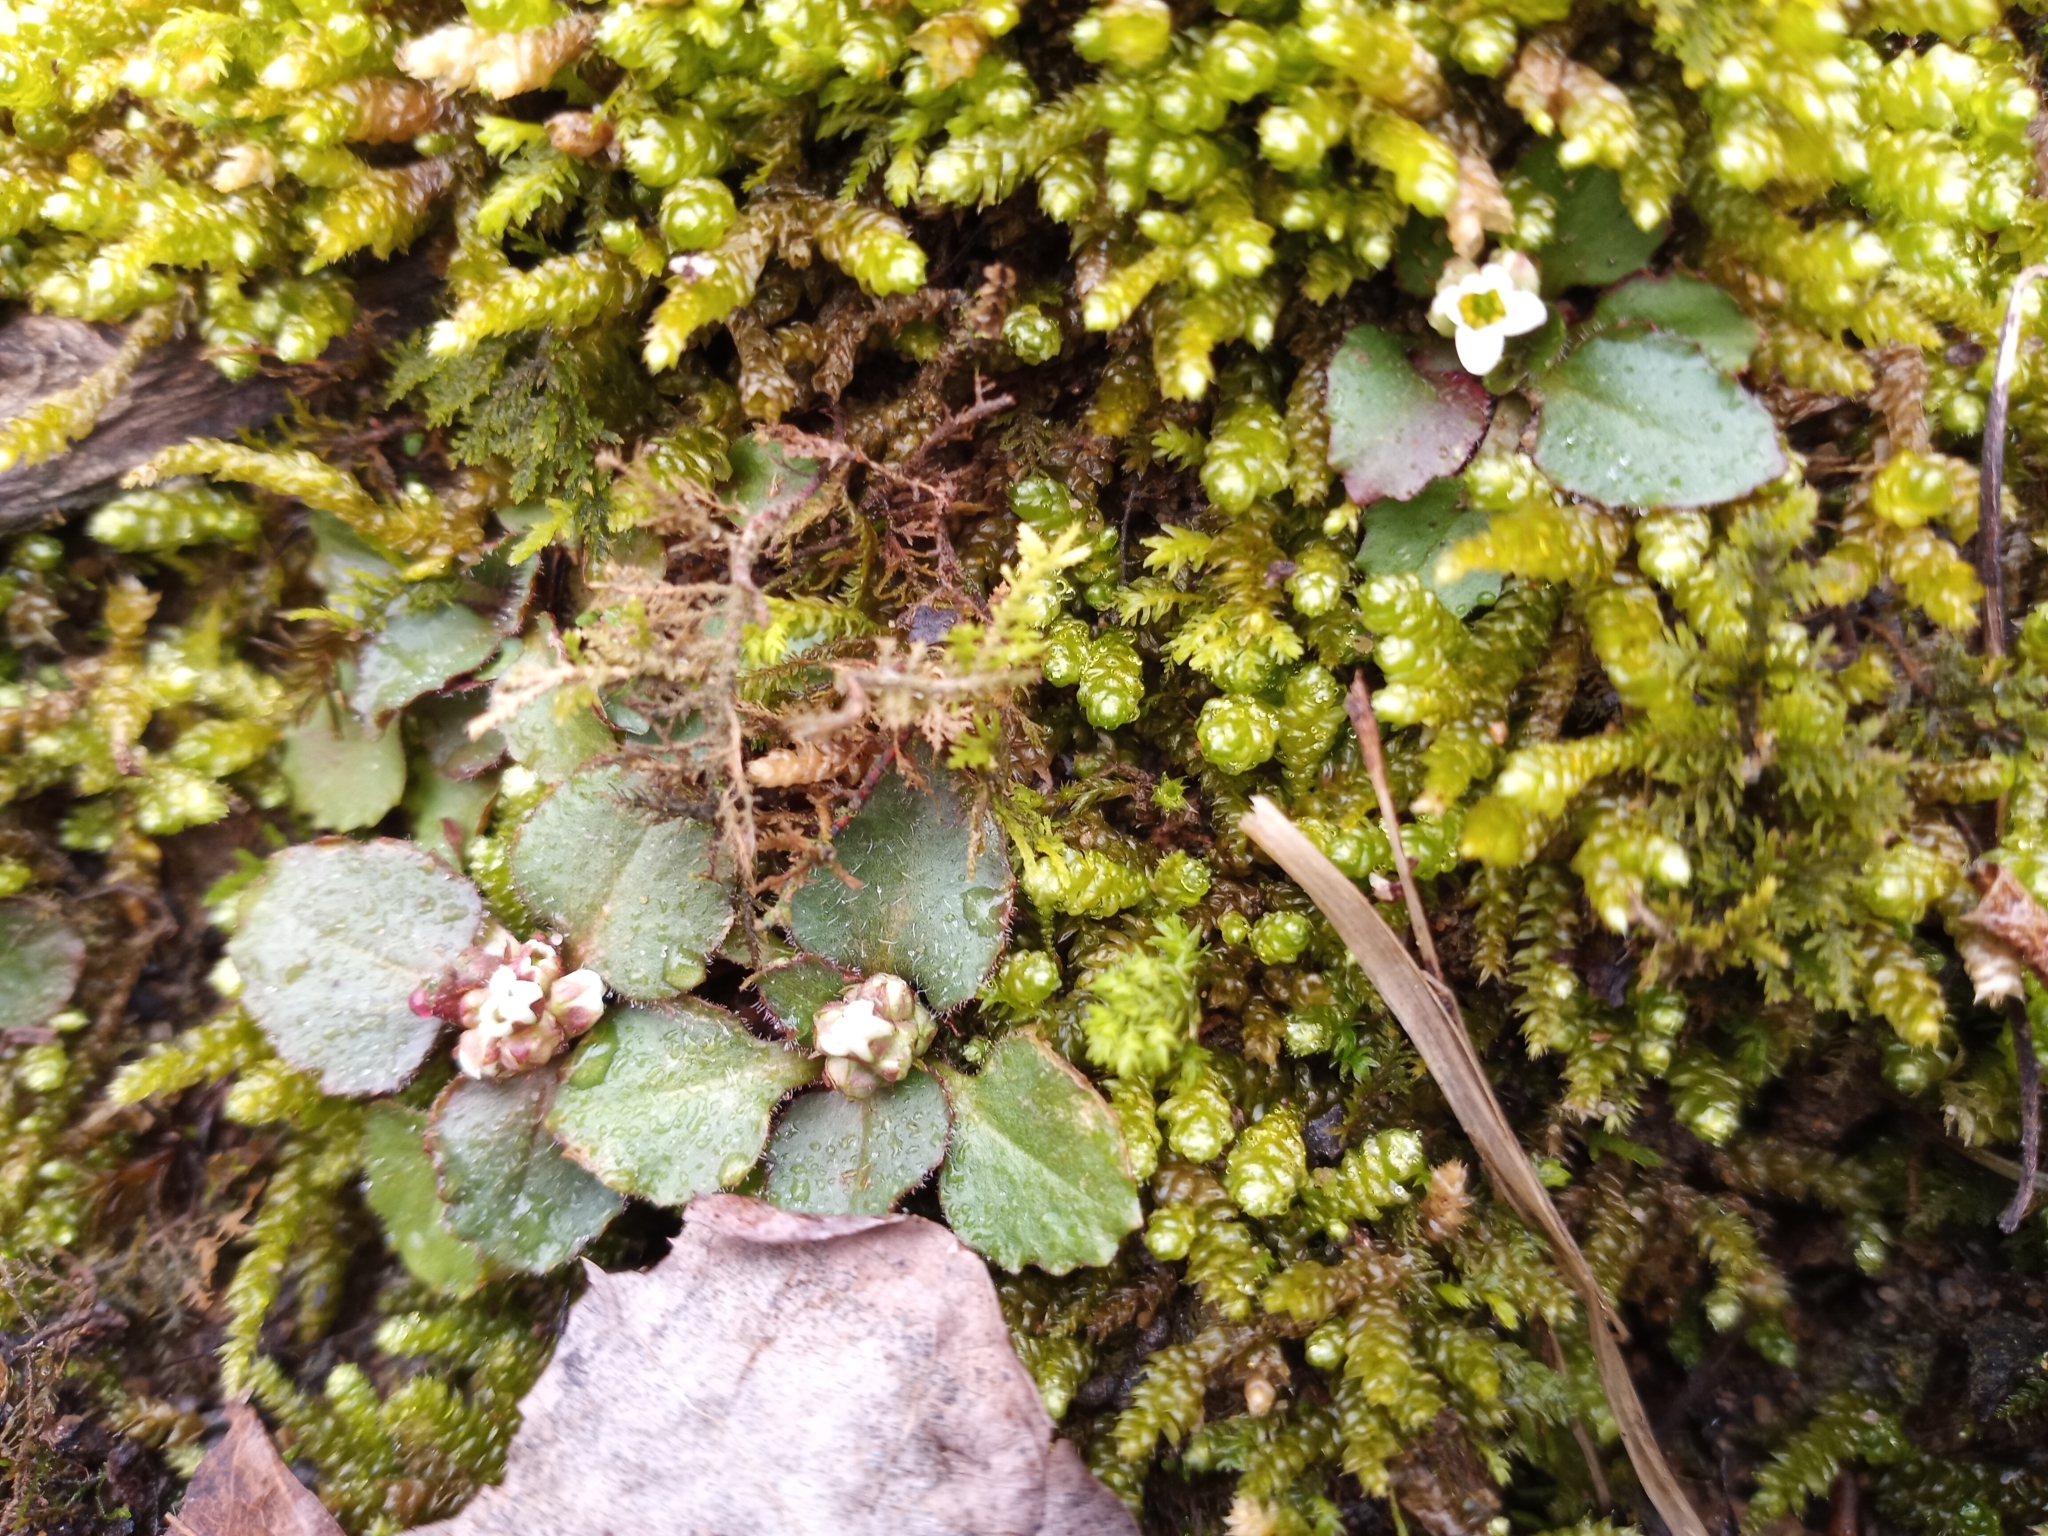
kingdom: Plantae
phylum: Tracheophyta
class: Magnoliopsida
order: Saxifragales
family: Saxifragaceae
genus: Micranthes
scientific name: Micranthes virginiensis
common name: Early saxifrage
